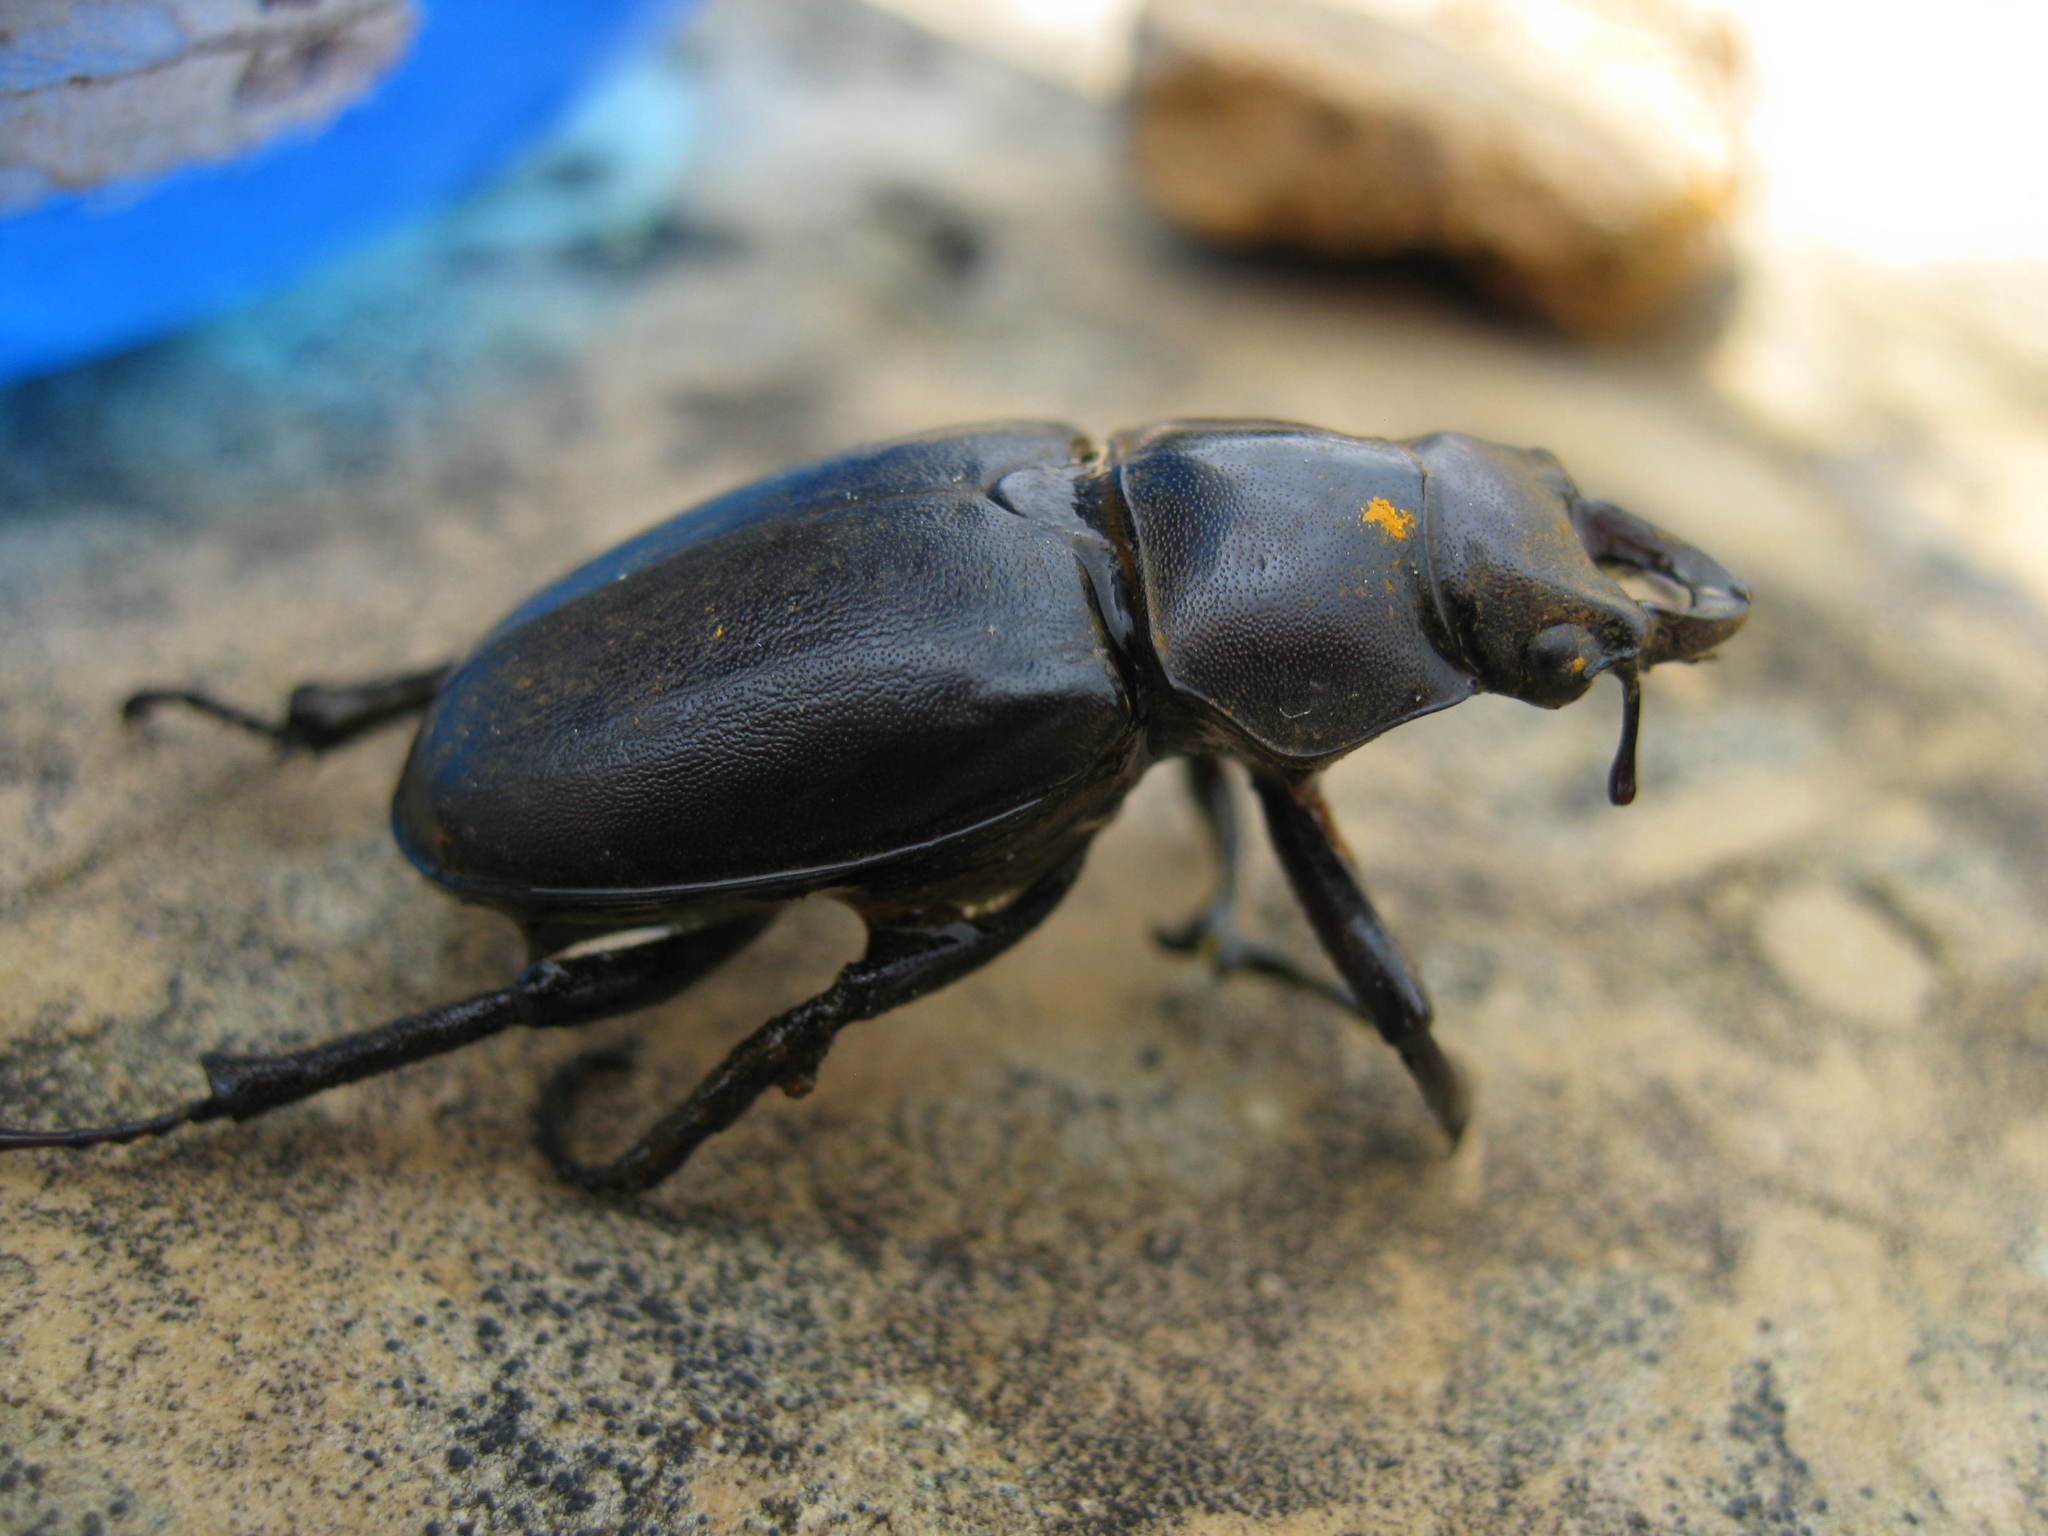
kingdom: Animalia
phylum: Arthropoda
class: Insecta
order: Coleoptera
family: Lucanidae
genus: Lucanus
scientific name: Lucanus placidus
